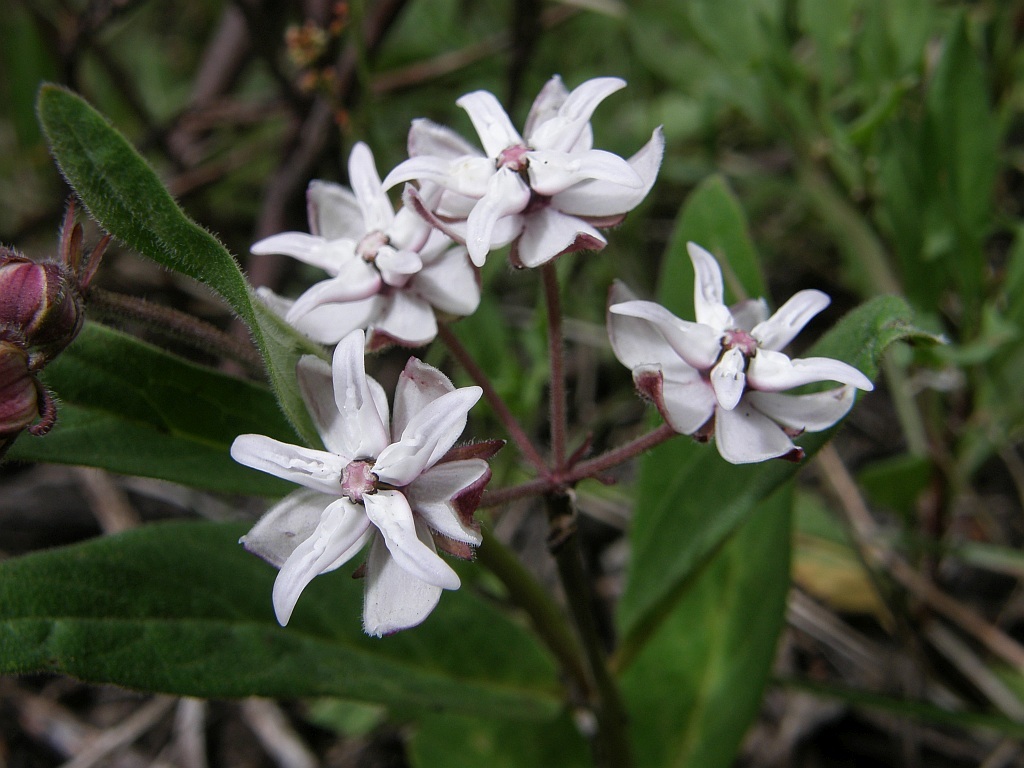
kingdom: Plantae
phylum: Tracheophyta
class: Magnoliopsida
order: Gentianales
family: Apocynaceae
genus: Asclepias
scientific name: Asclepias humilis
